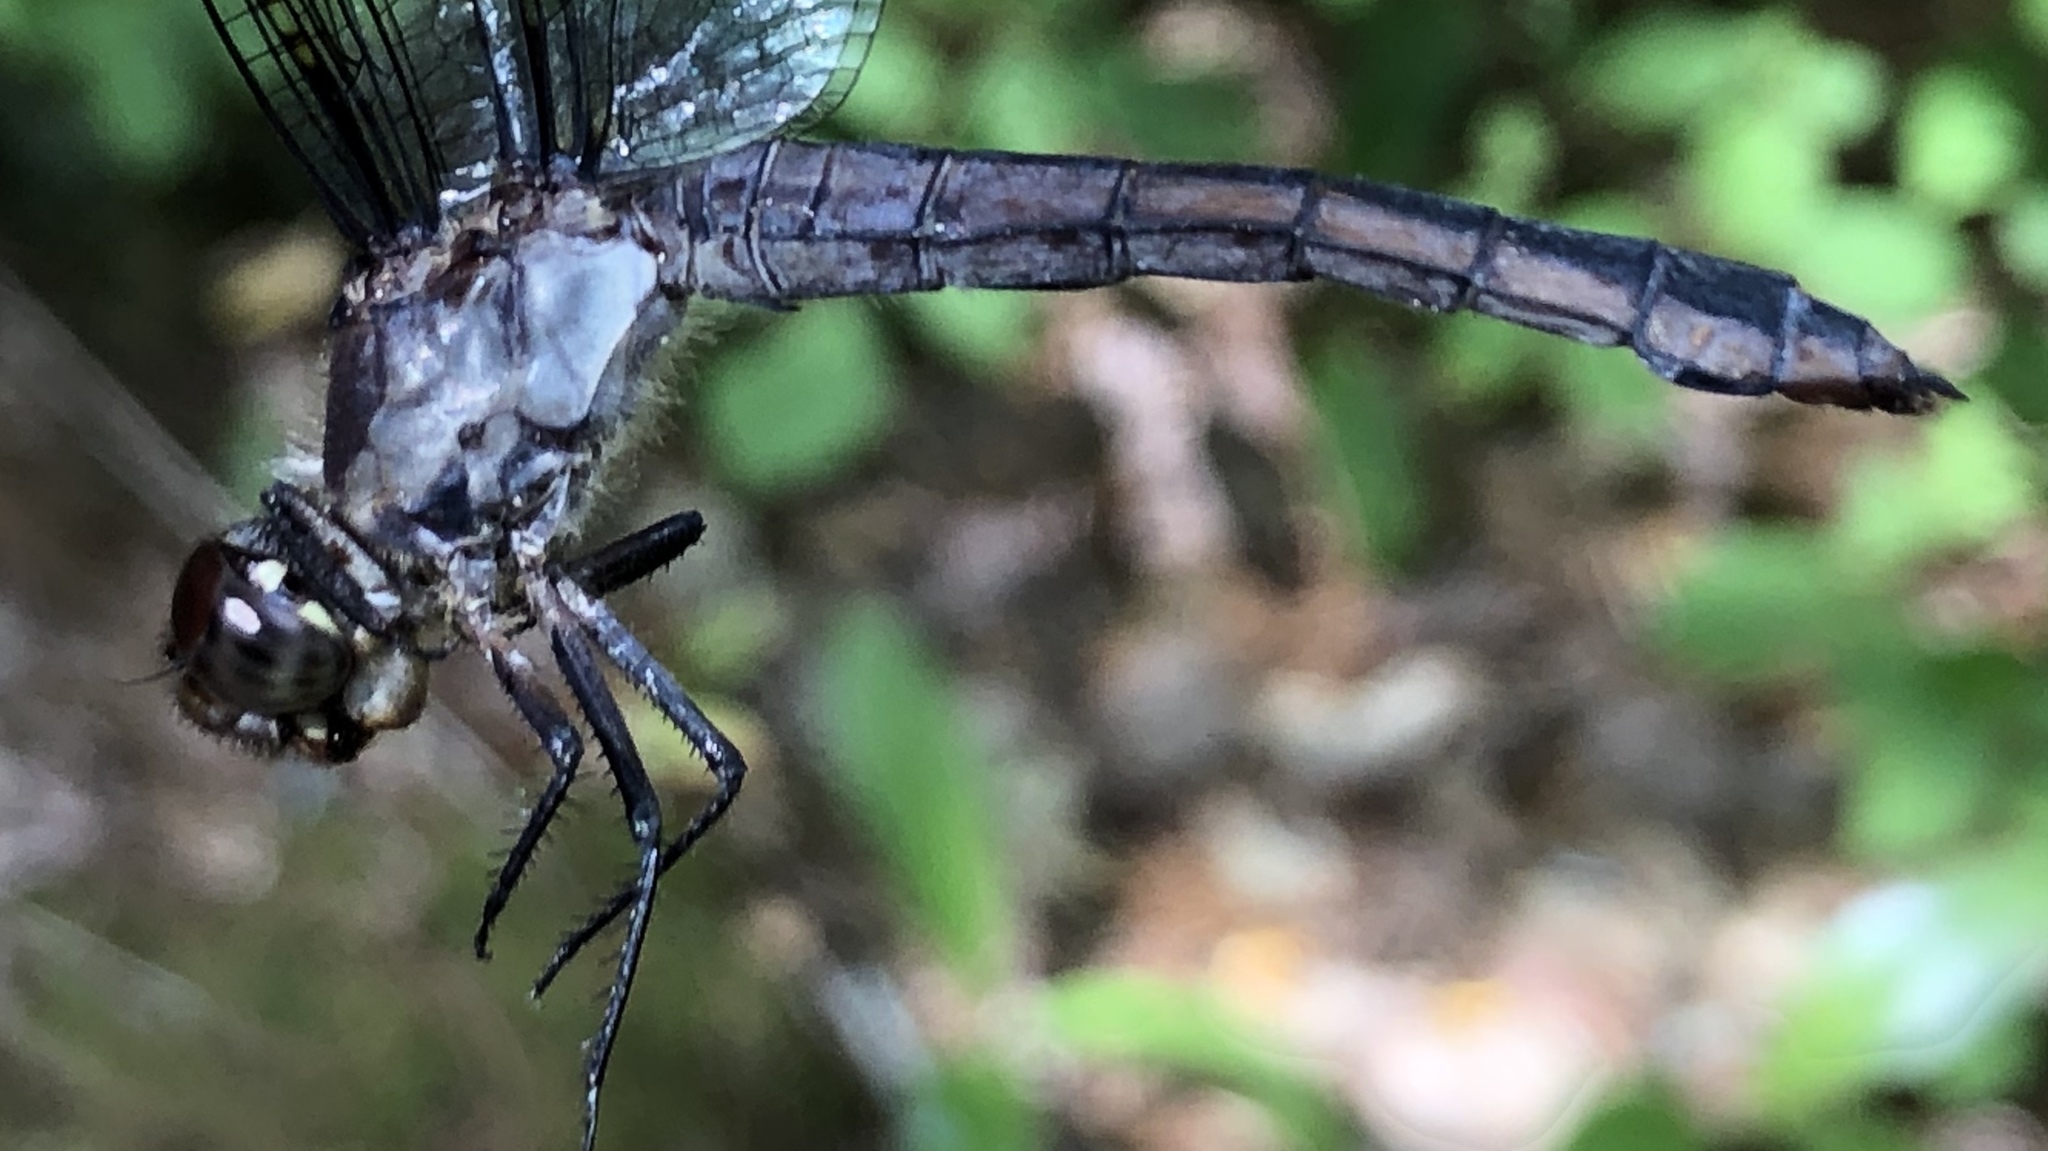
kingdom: Animalia
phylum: Arthropoda
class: Insecta
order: Odonata
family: Libellulidae
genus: Libellula
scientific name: Libellula incesta
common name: Slaty skimmer
